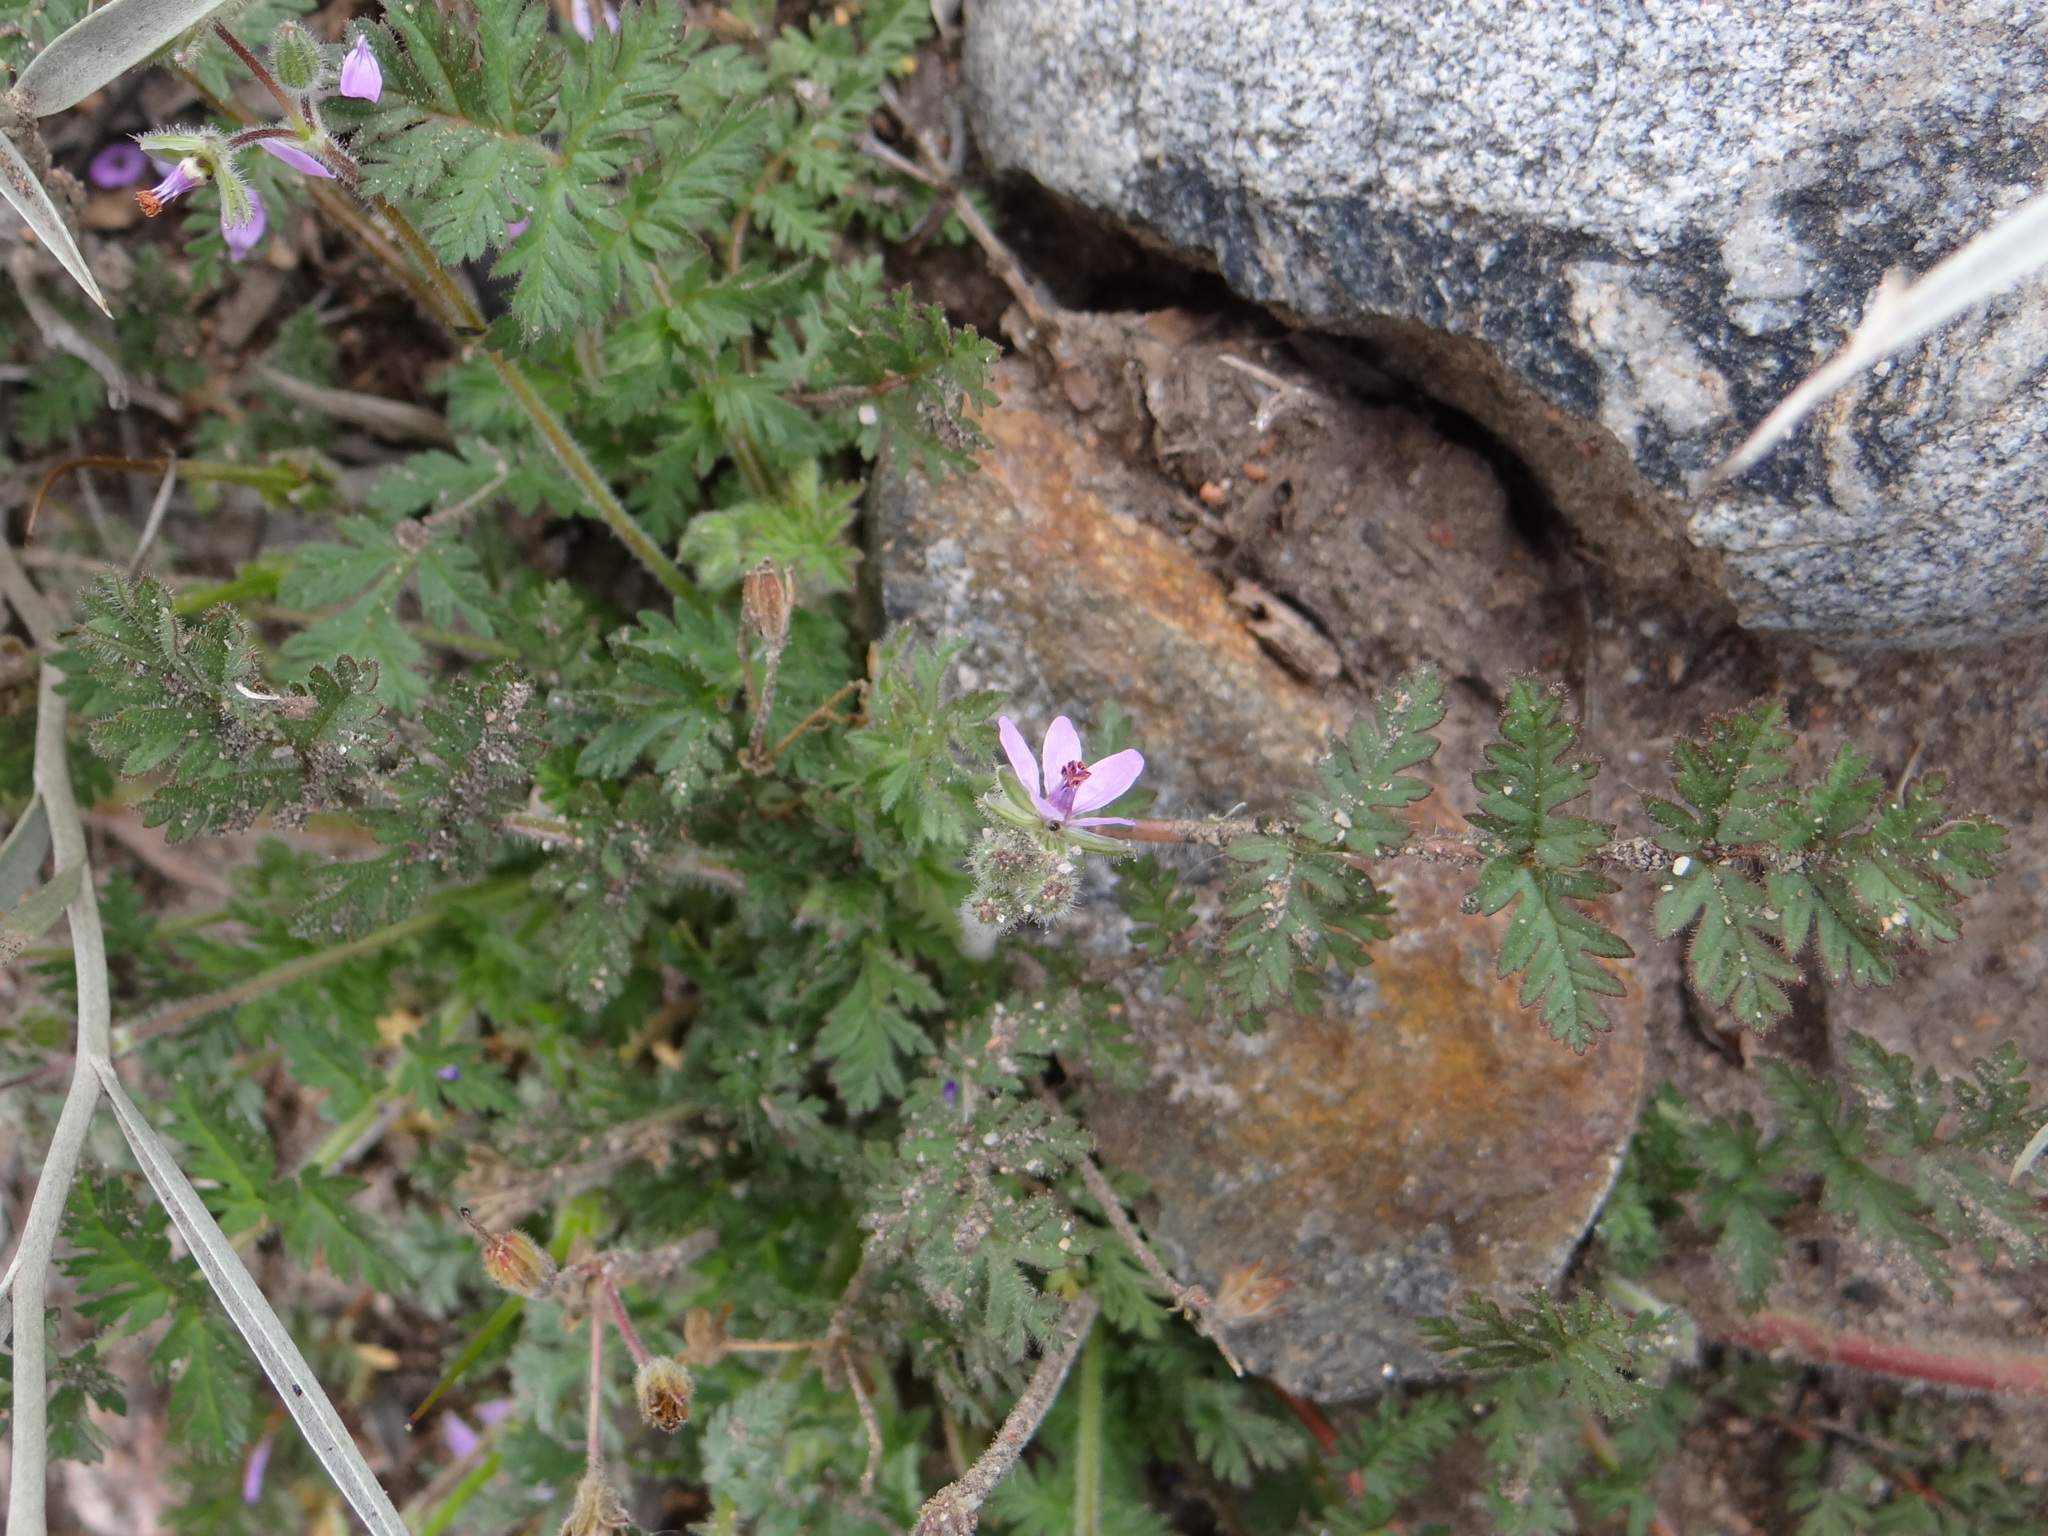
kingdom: Plantae
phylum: Tracheophyta
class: Magnoliopsida
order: Geraniales
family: Geraniaceae
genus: Erodium
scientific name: Erodium cicutarium
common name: Common stork's-bill
